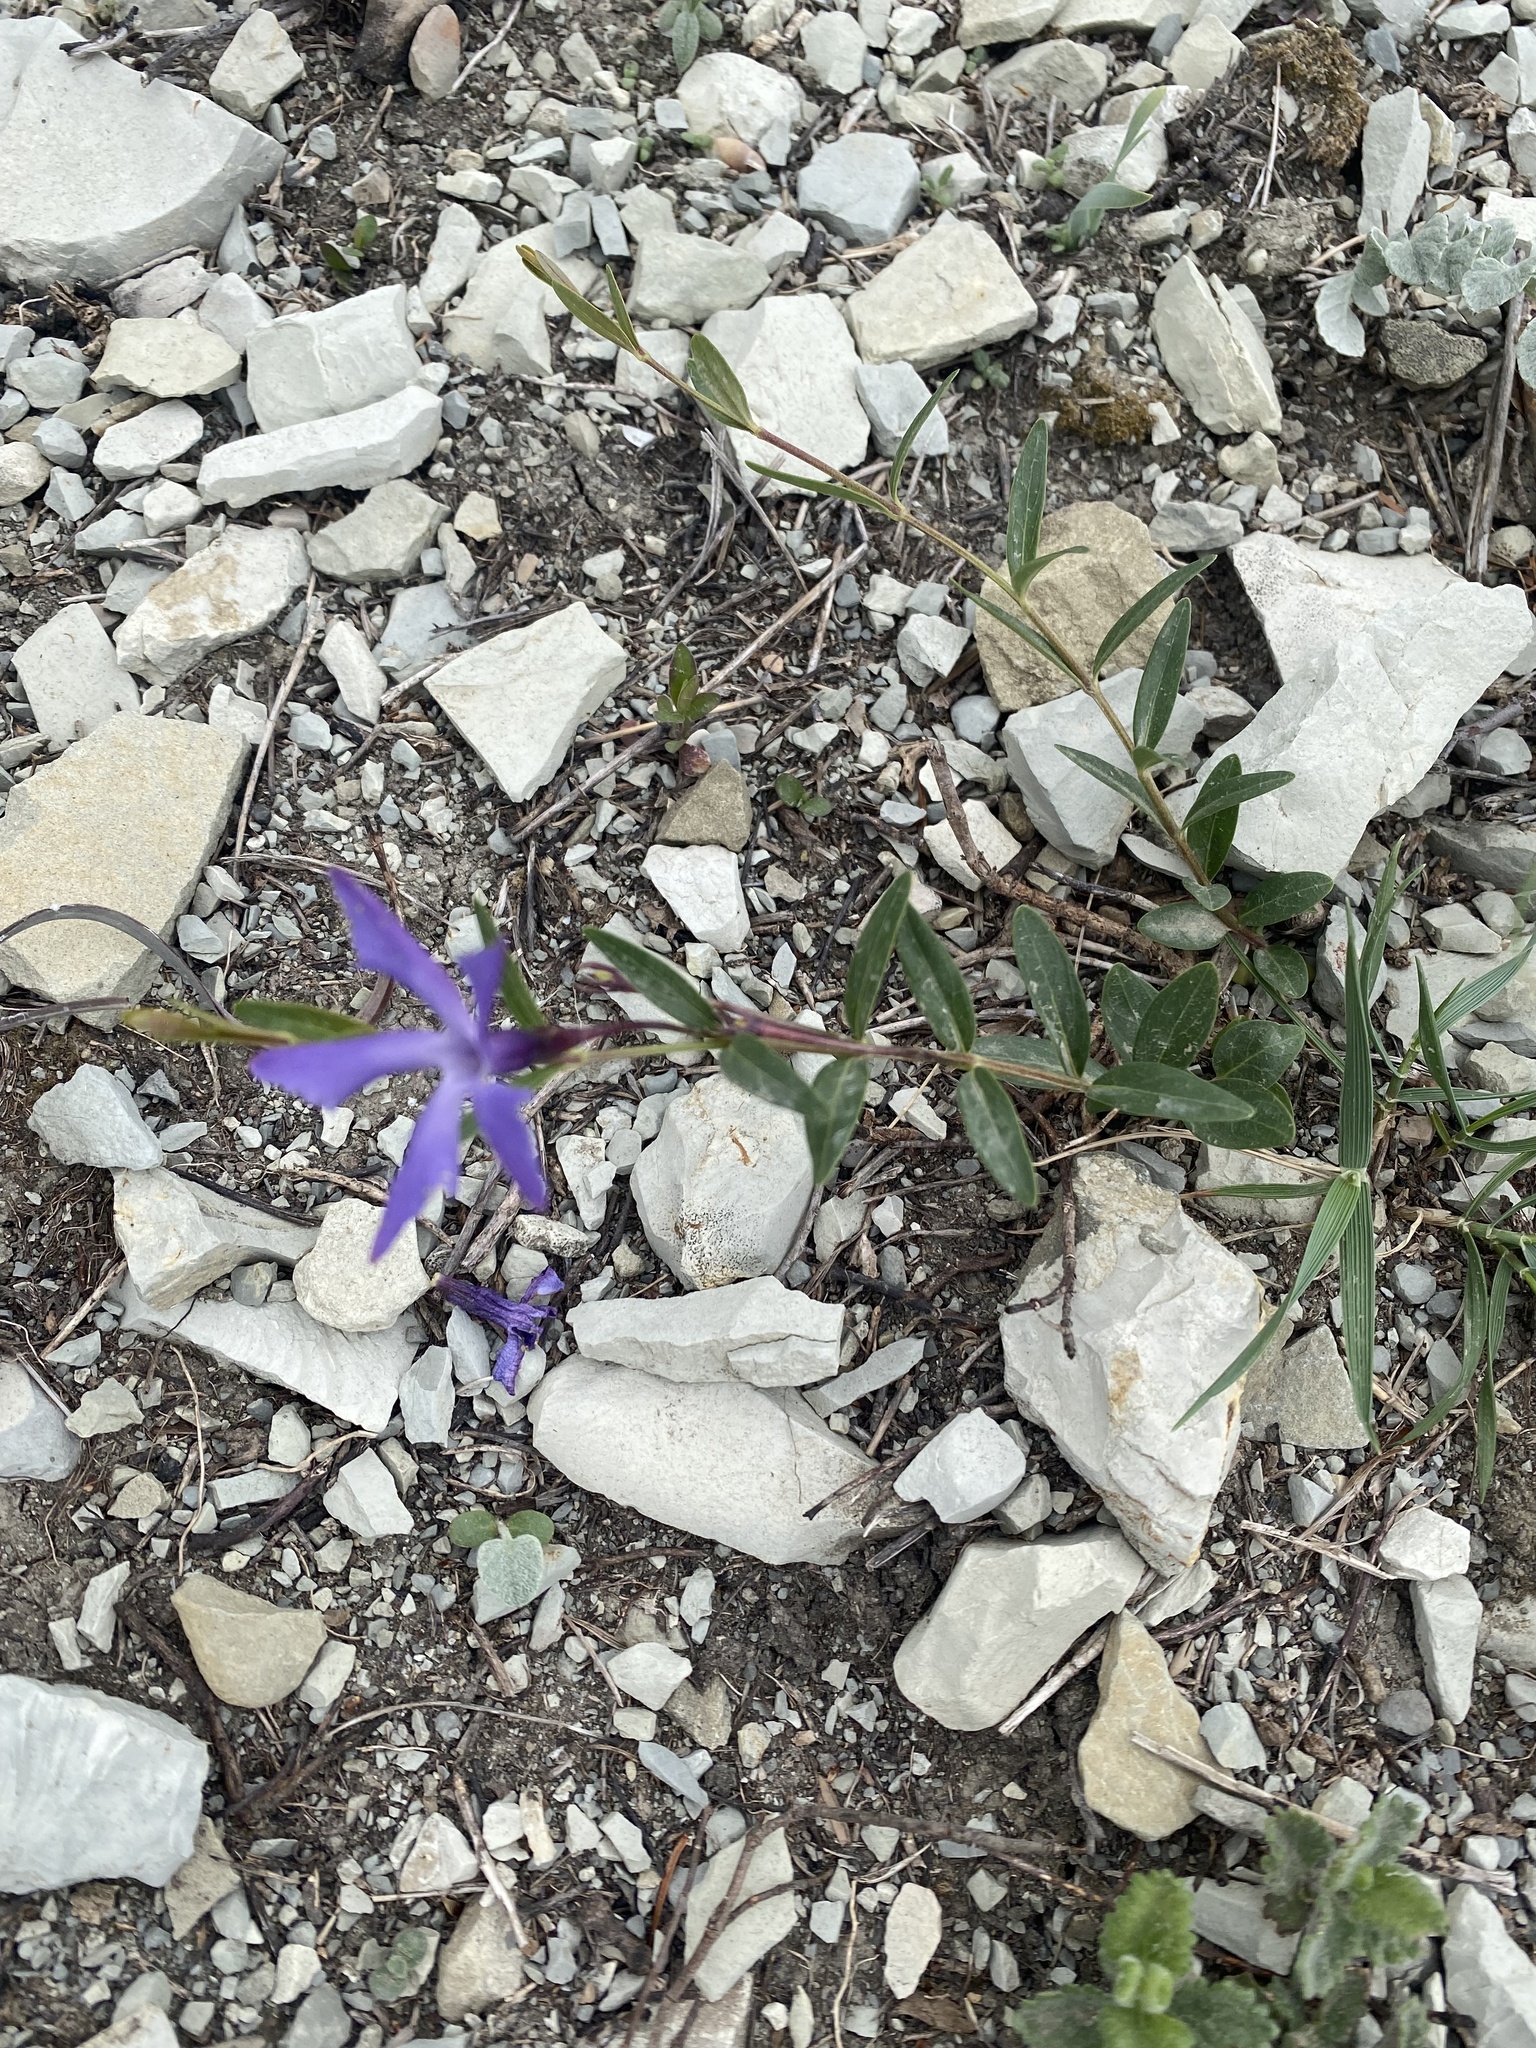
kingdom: Plantae
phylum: Tracheophyta
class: Magnoliopsida
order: Gentianales
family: Apocynaceae
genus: Vinca
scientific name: Vinca herbacea
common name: Herbaceous periwinkle
